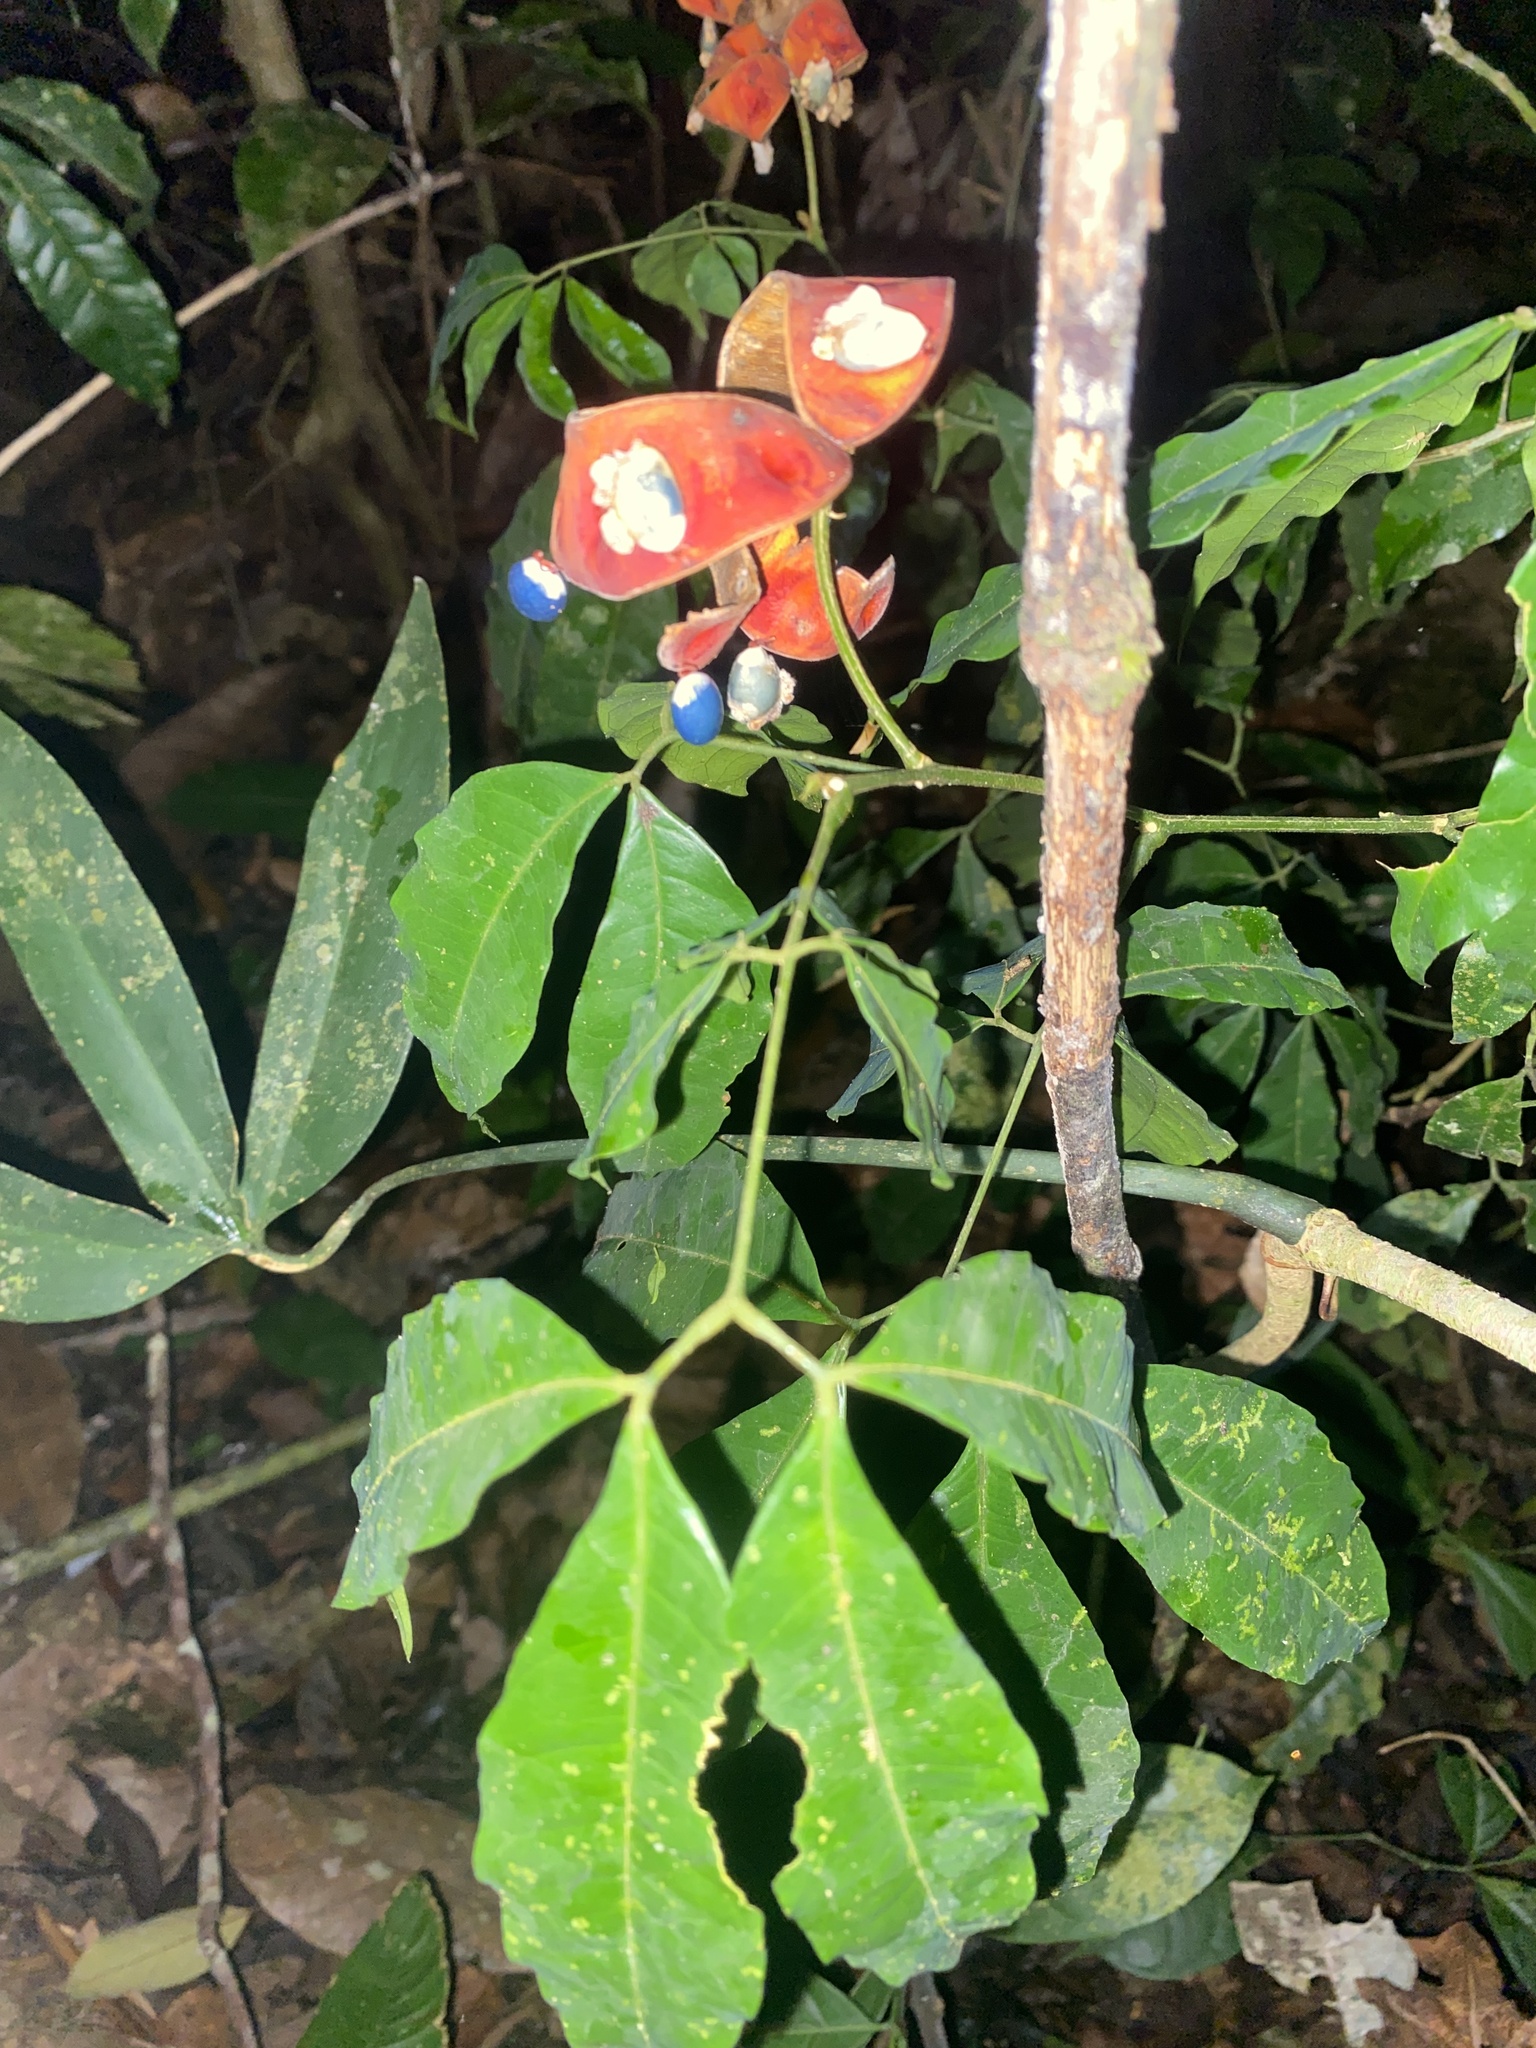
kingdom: Plantae
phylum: Tracheophyta
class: Magnoliopsida
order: Fabales
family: Fabaceae
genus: Jupunba
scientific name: Jupunba laeta
